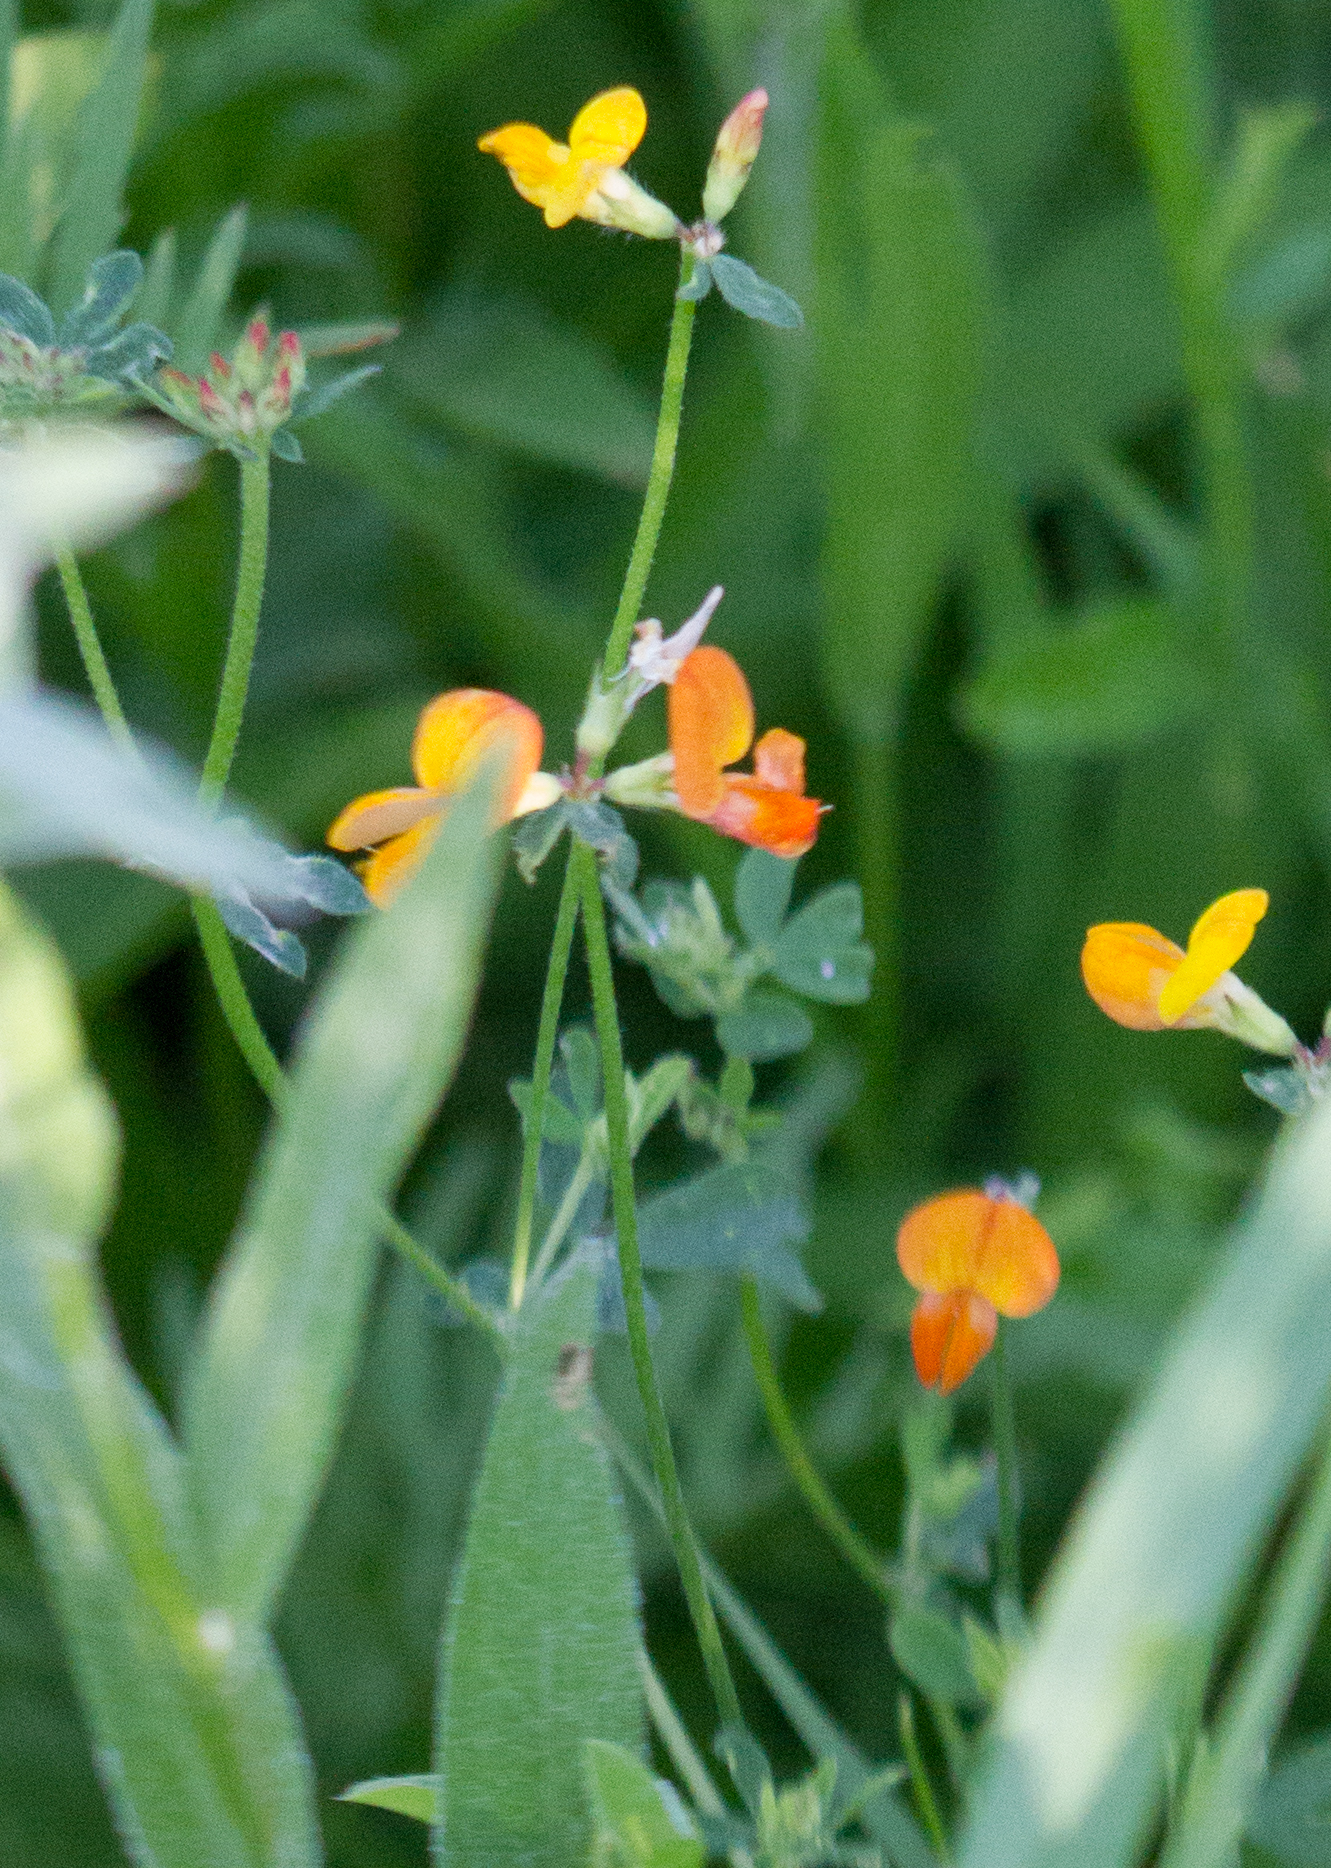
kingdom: Plantae
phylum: Tracheophyta
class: Magnoliopsida
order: Fabales
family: Fabaceae
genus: Lotus
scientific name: Lotus corniculatus
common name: Common bird's-foot-trefoil
